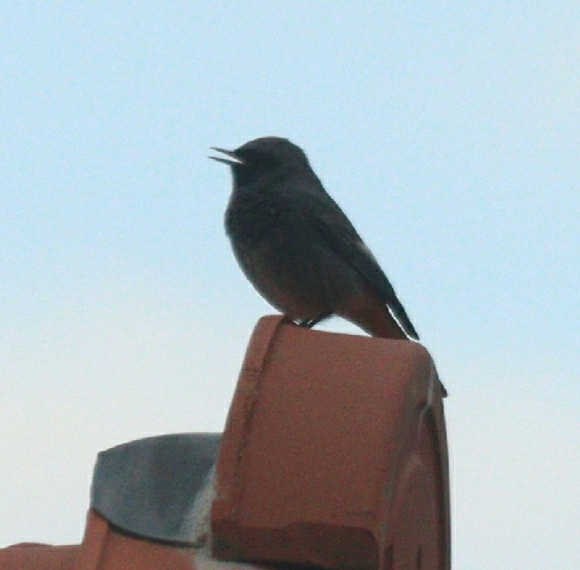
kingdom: Animalia
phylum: Chordata
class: Aves
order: Passeriformes
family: Muscicapidae
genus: Phoenicurus
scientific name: Phoenicurus ochruros
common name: Black redstart
